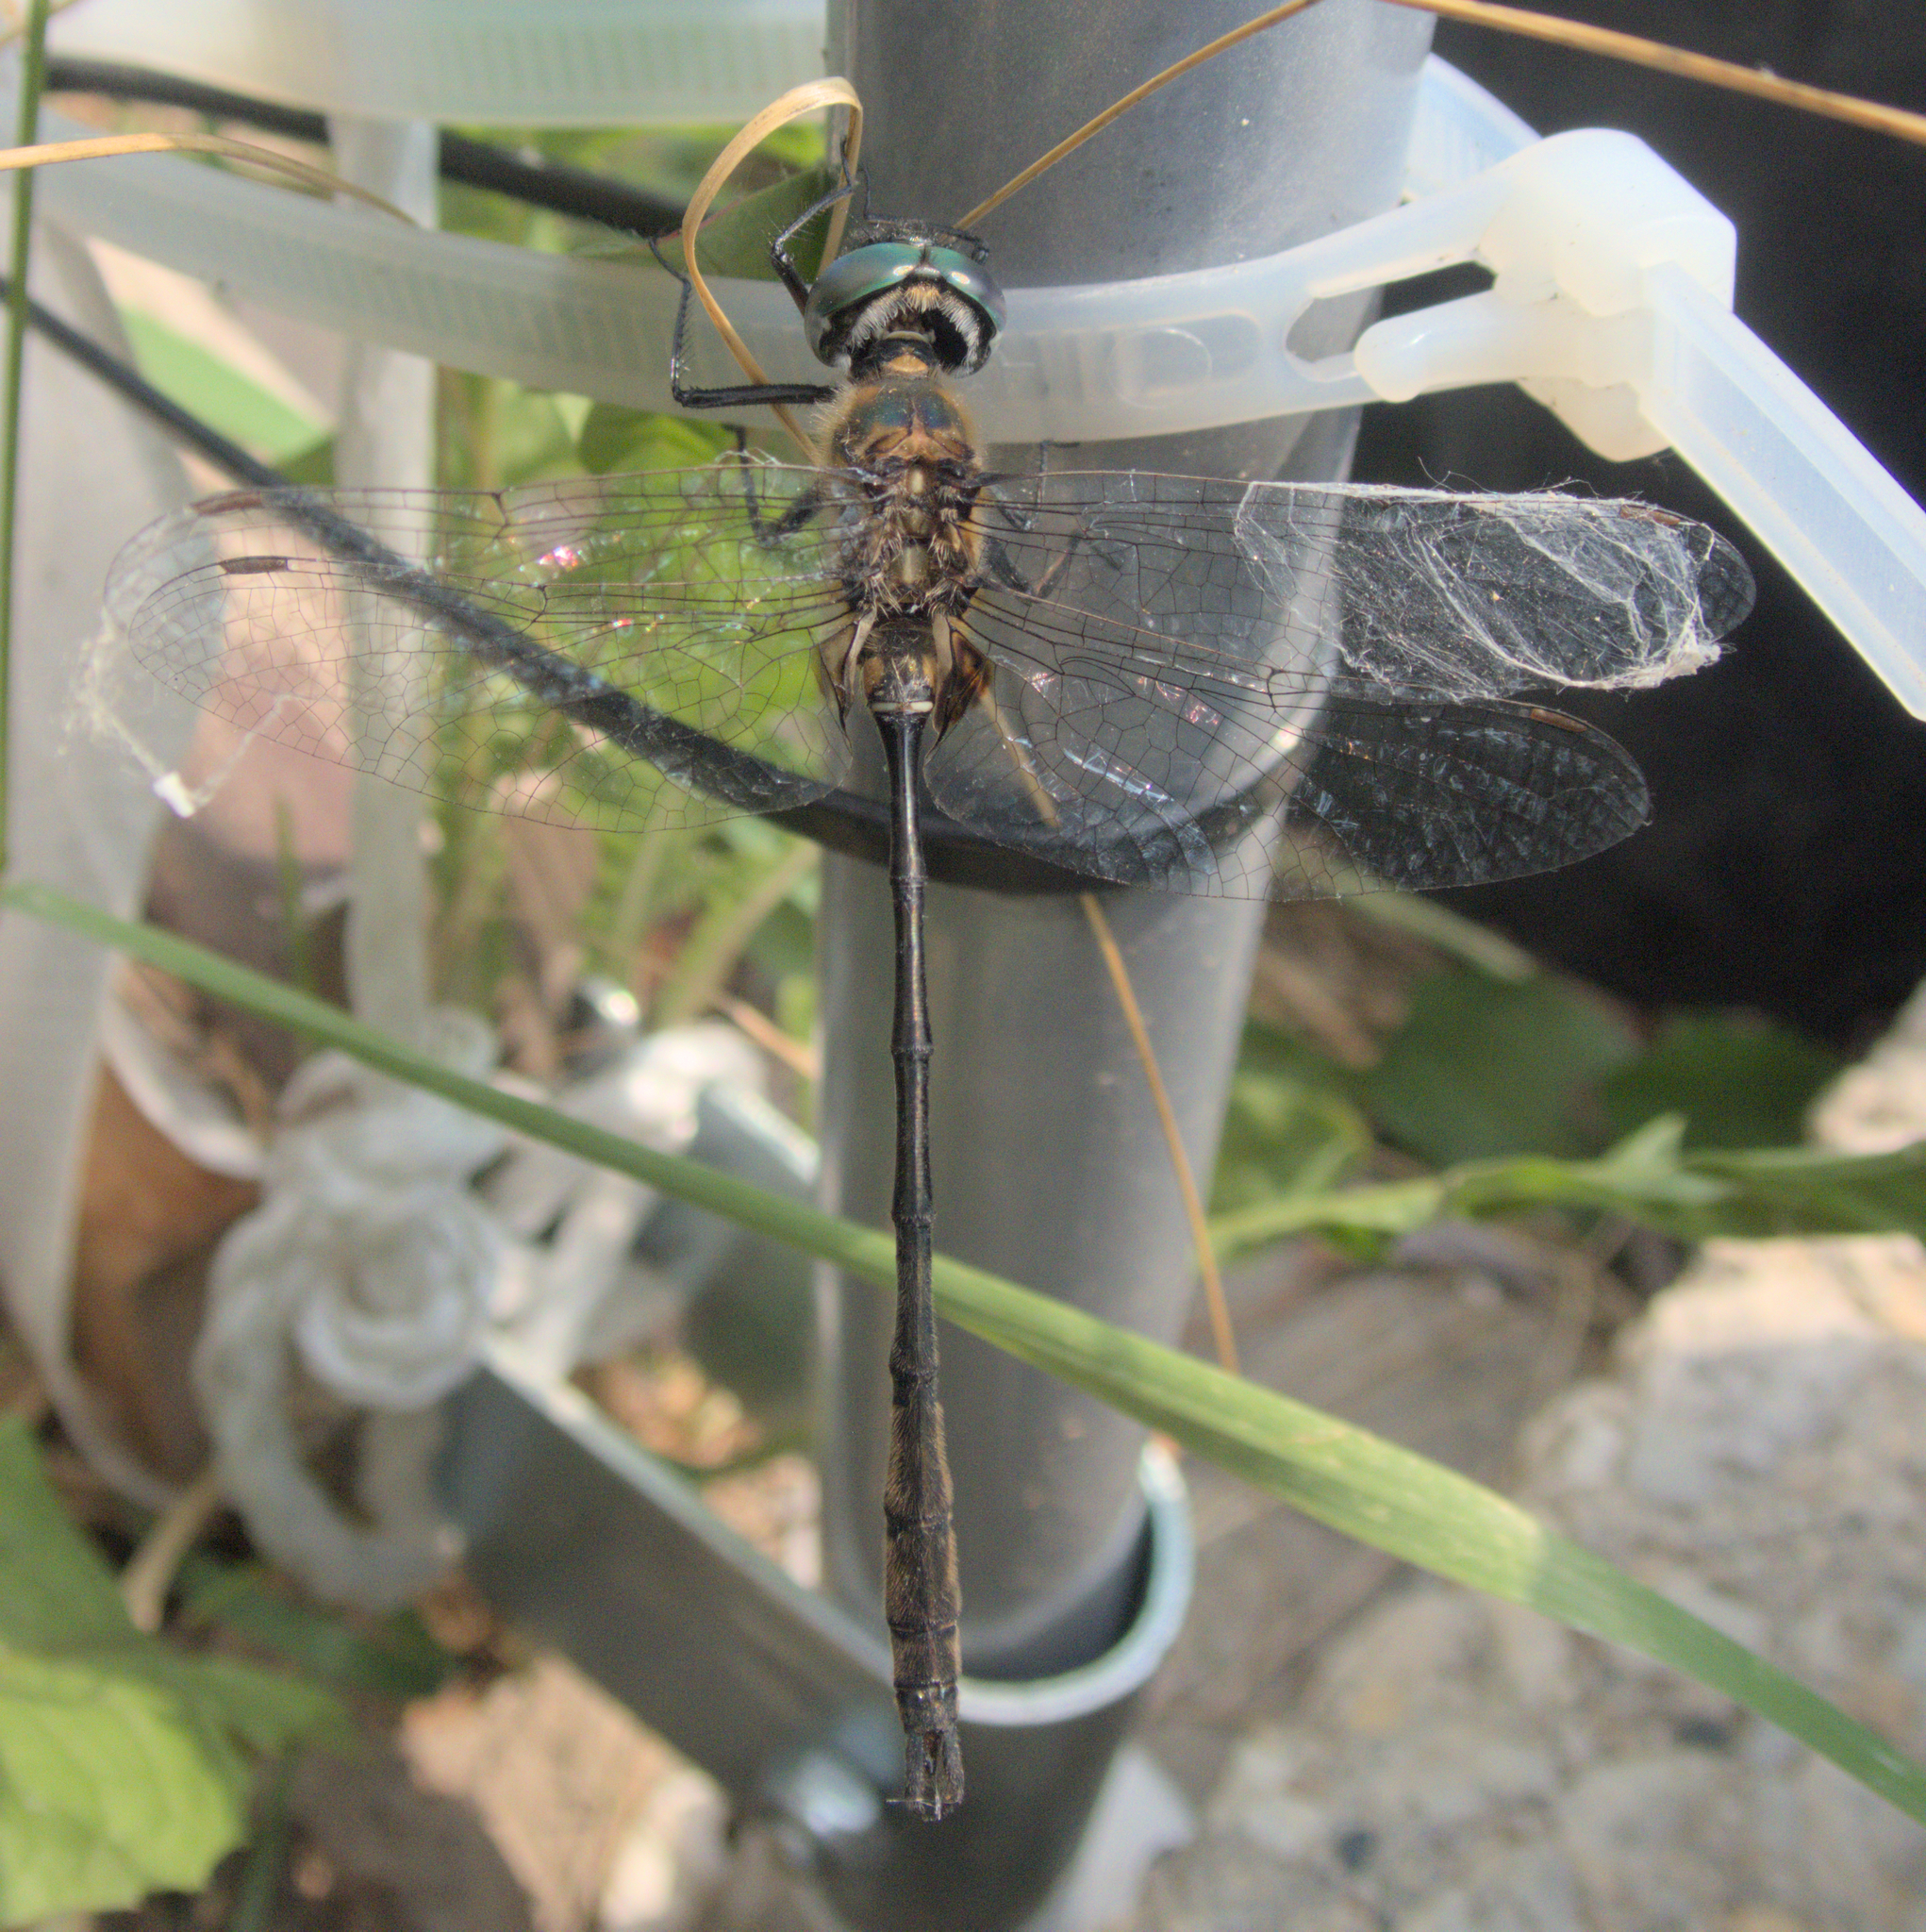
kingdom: Animalia
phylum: Arthropoda
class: Insecta
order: Odonata
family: Corduliidae
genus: Somatochlora
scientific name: Somatochlora franklini
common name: Delicate emerald
